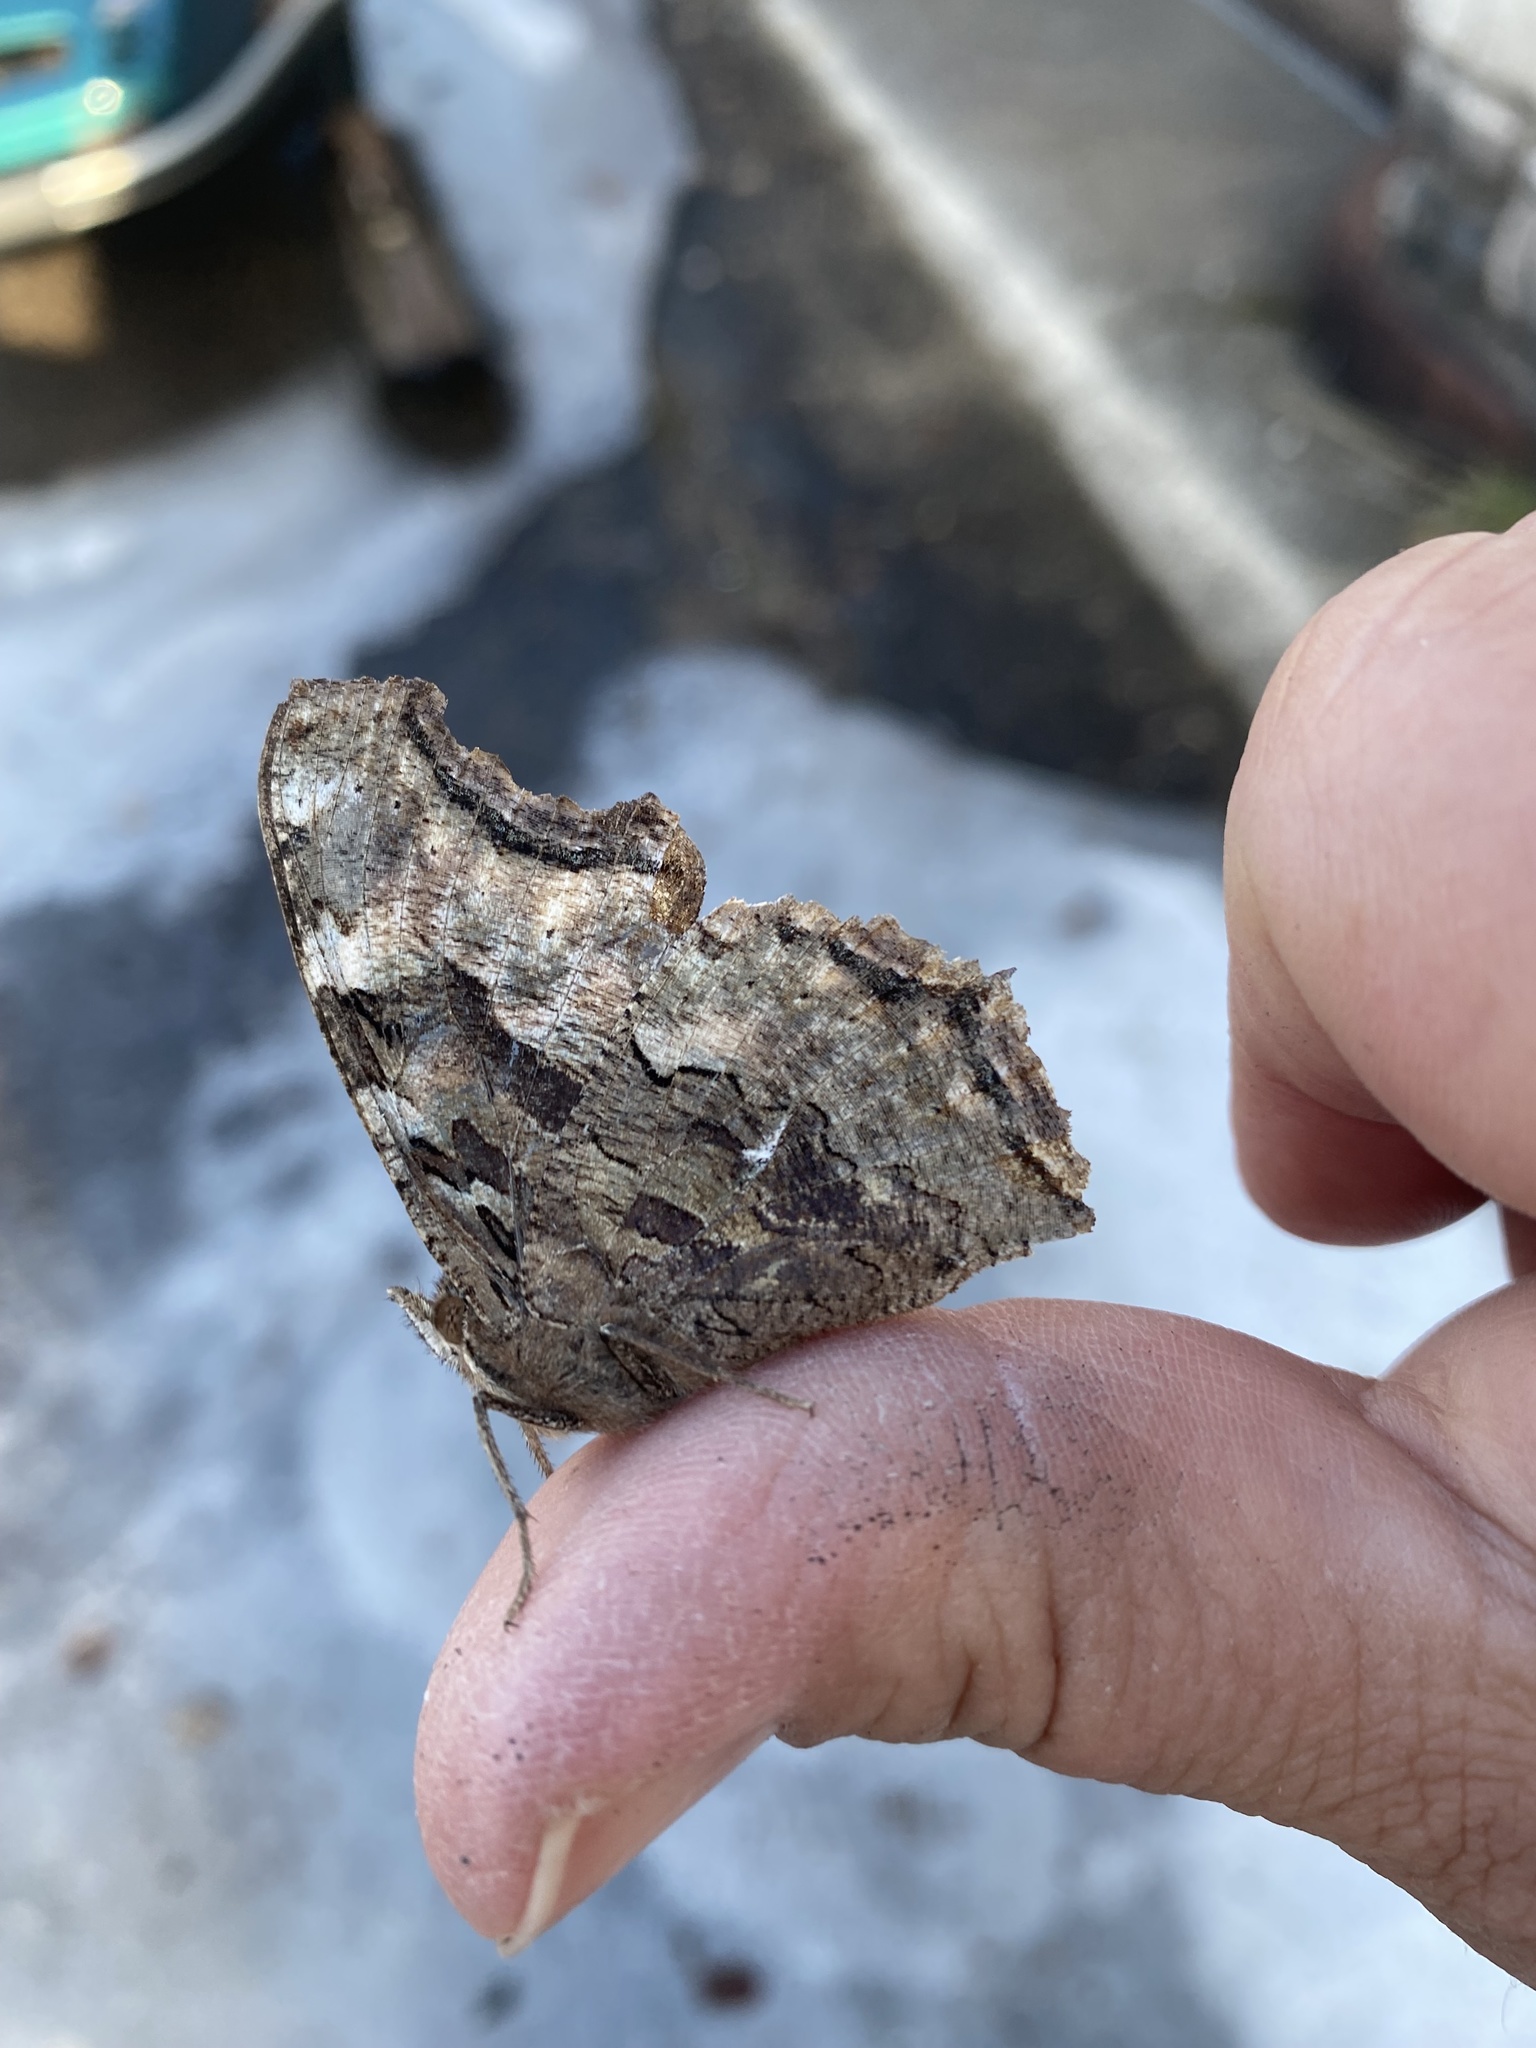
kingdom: Animalia
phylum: Arthropoda
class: Insecta
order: Lepidoptera
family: Nymphalidae
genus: Polygonia
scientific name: Polygonia vaualbum
